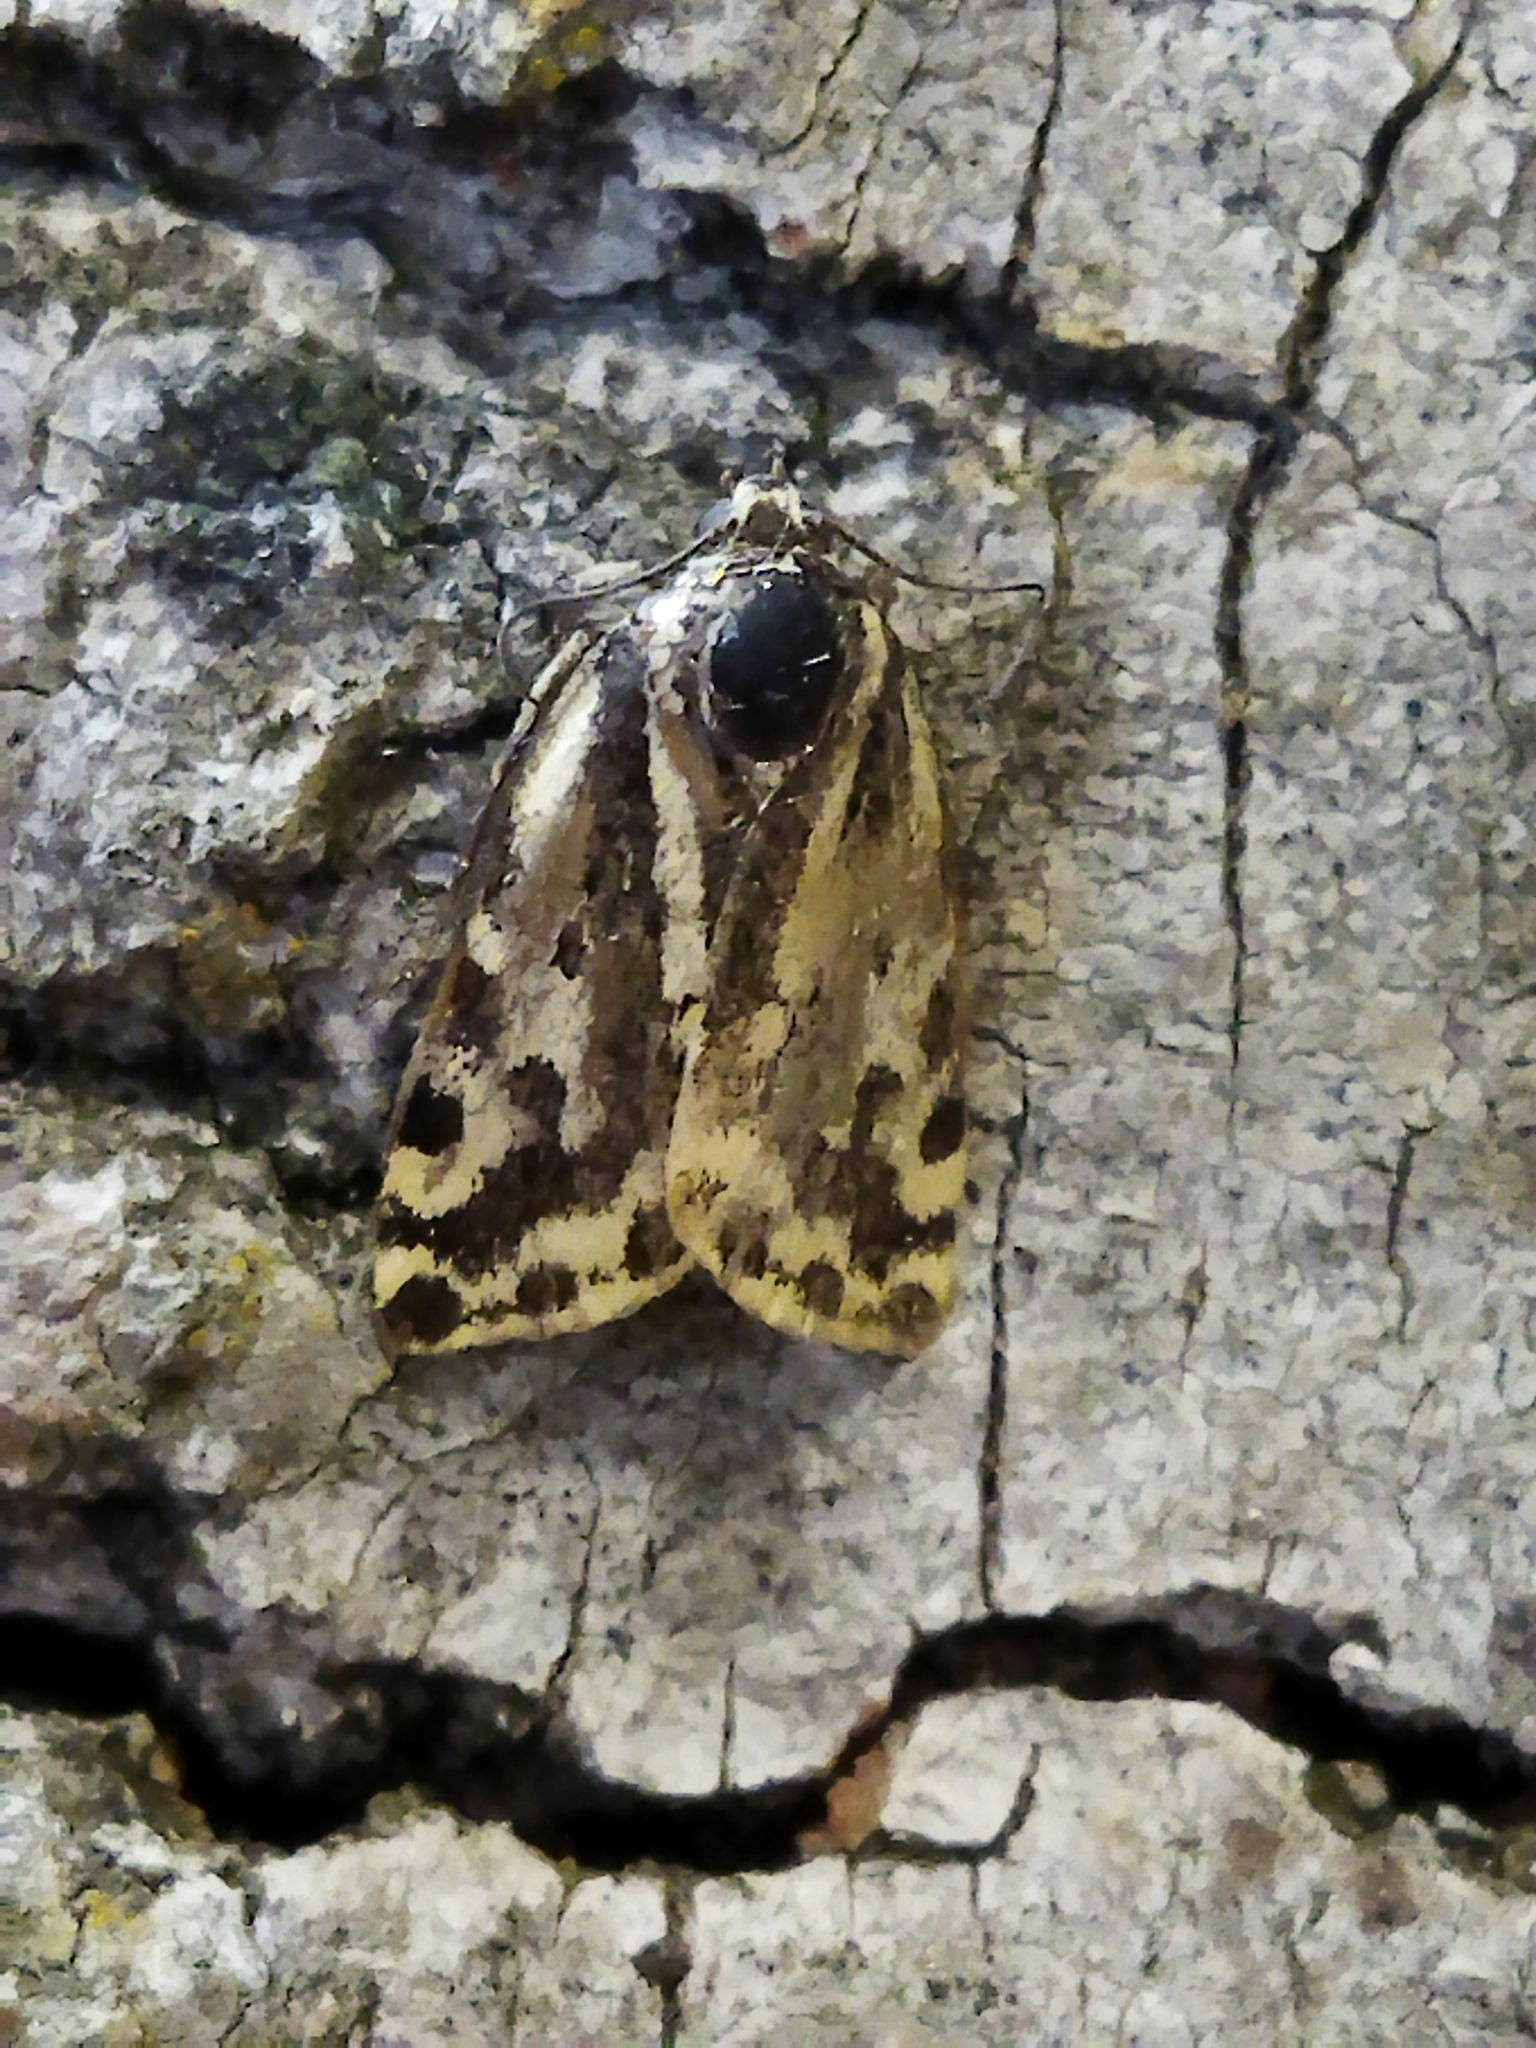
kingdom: Animalia
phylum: Arthropoda
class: Insecta
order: Lepidoptera
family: Noctuidae
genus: Acontia
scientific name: Acontia trabealis
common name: Spotted sulphur
